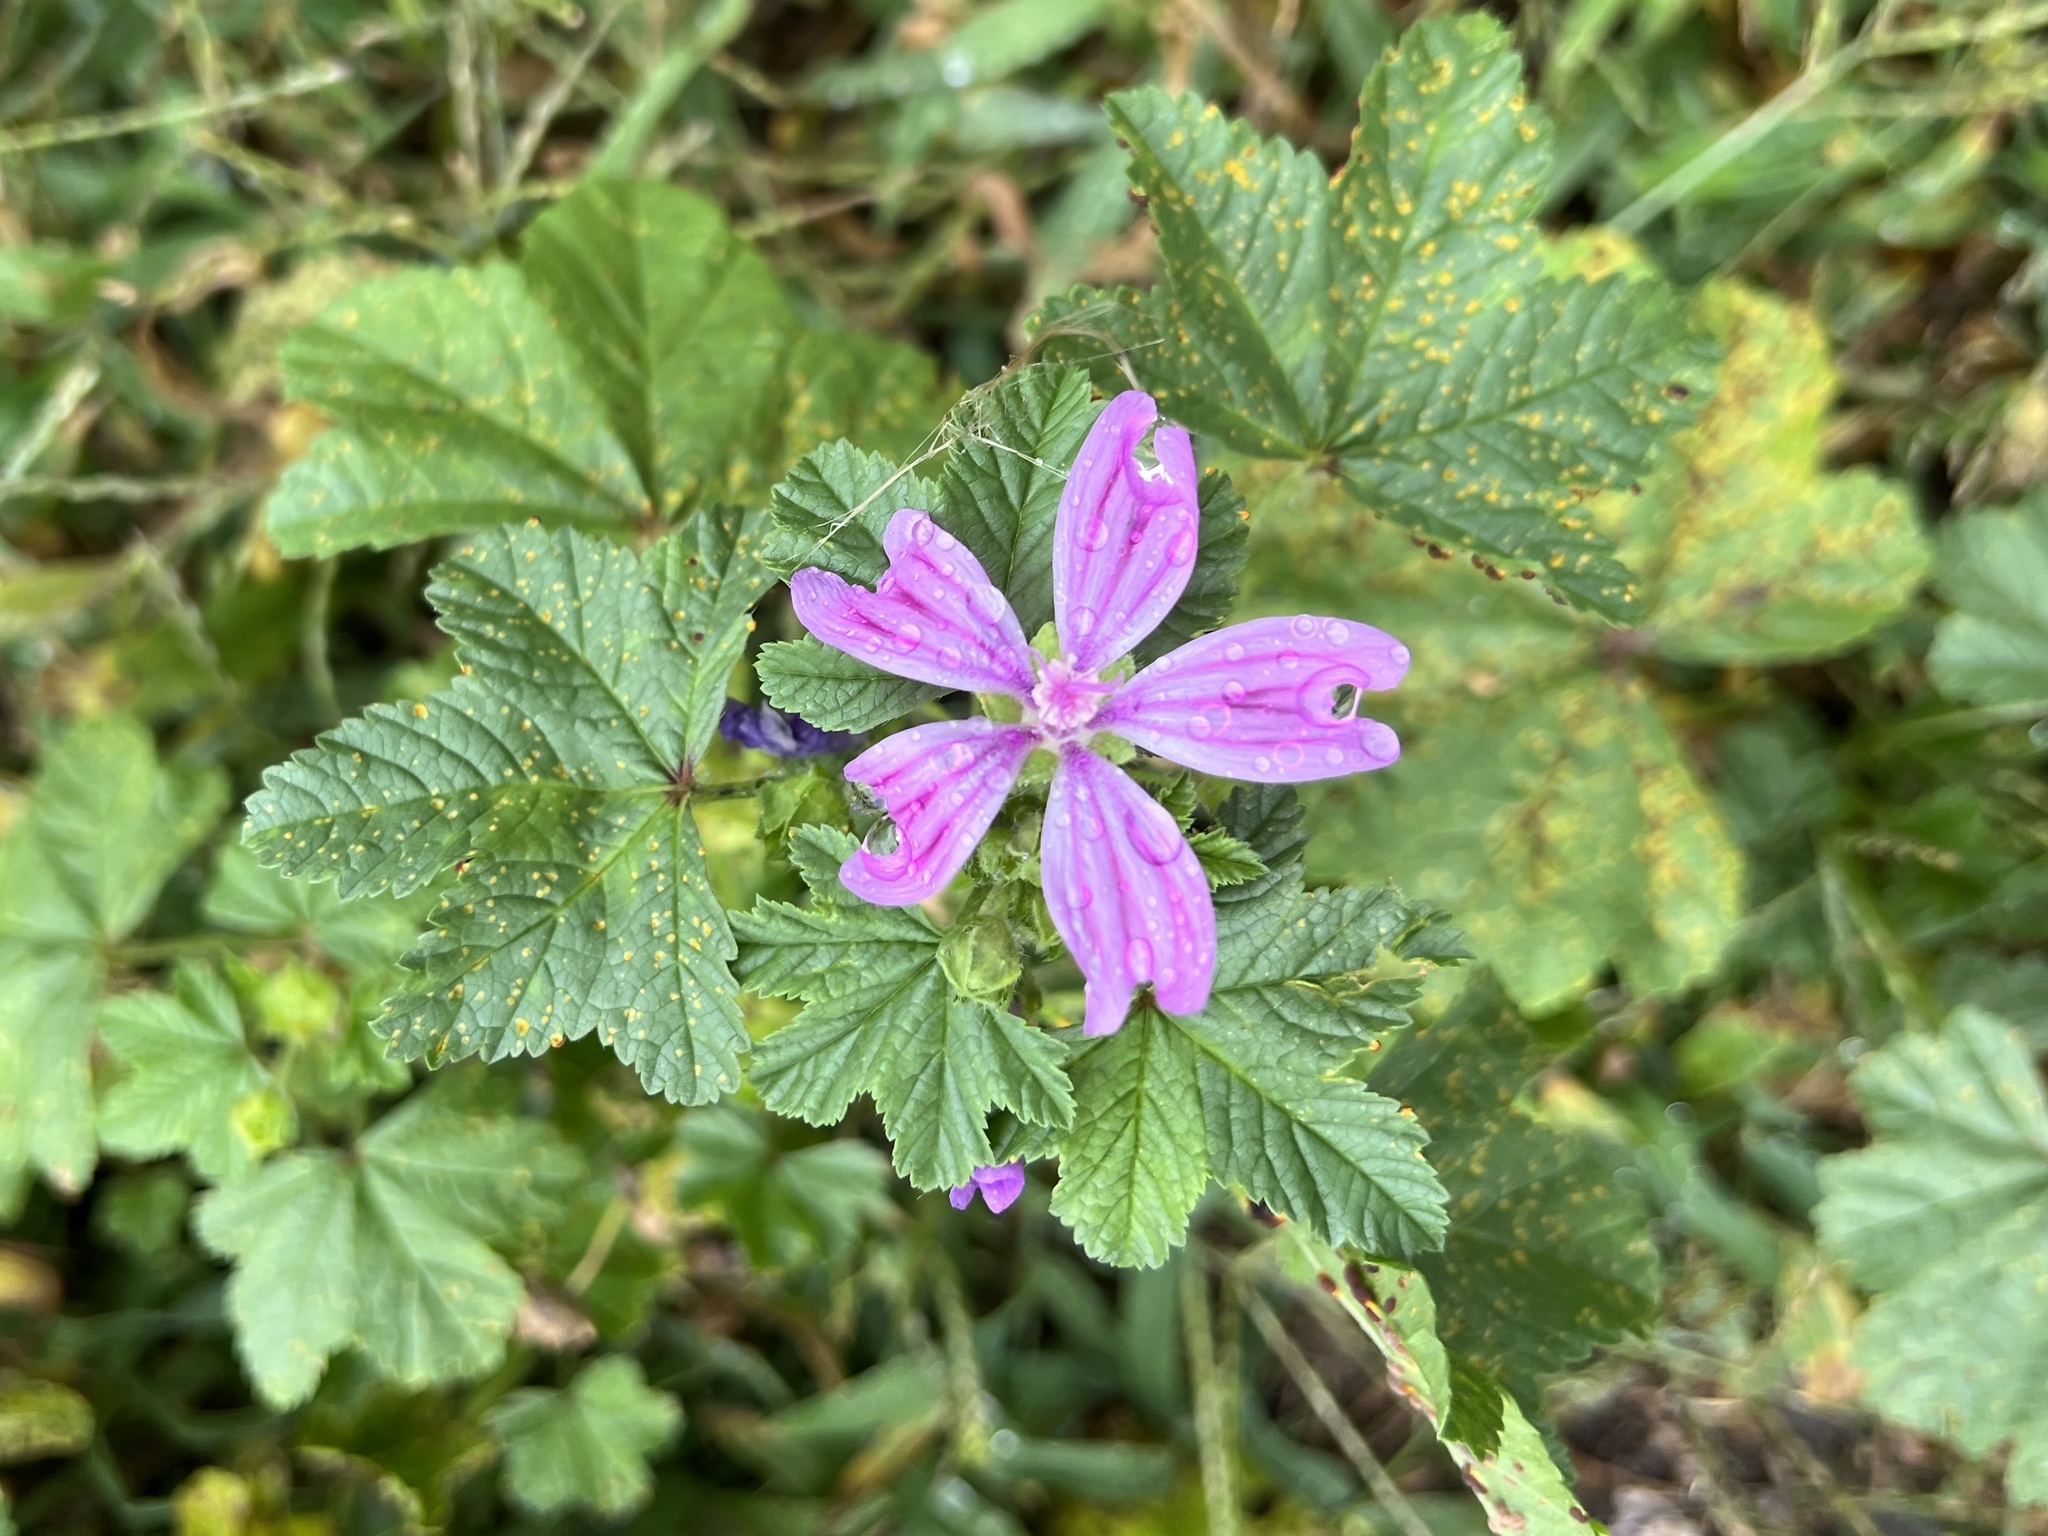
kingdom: Plantae
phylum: Tracheophyta
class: Magnoliopsida
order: Malvales
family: Malvaceae
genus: Malva
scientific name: Malva sylvestris
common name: Common mallow
